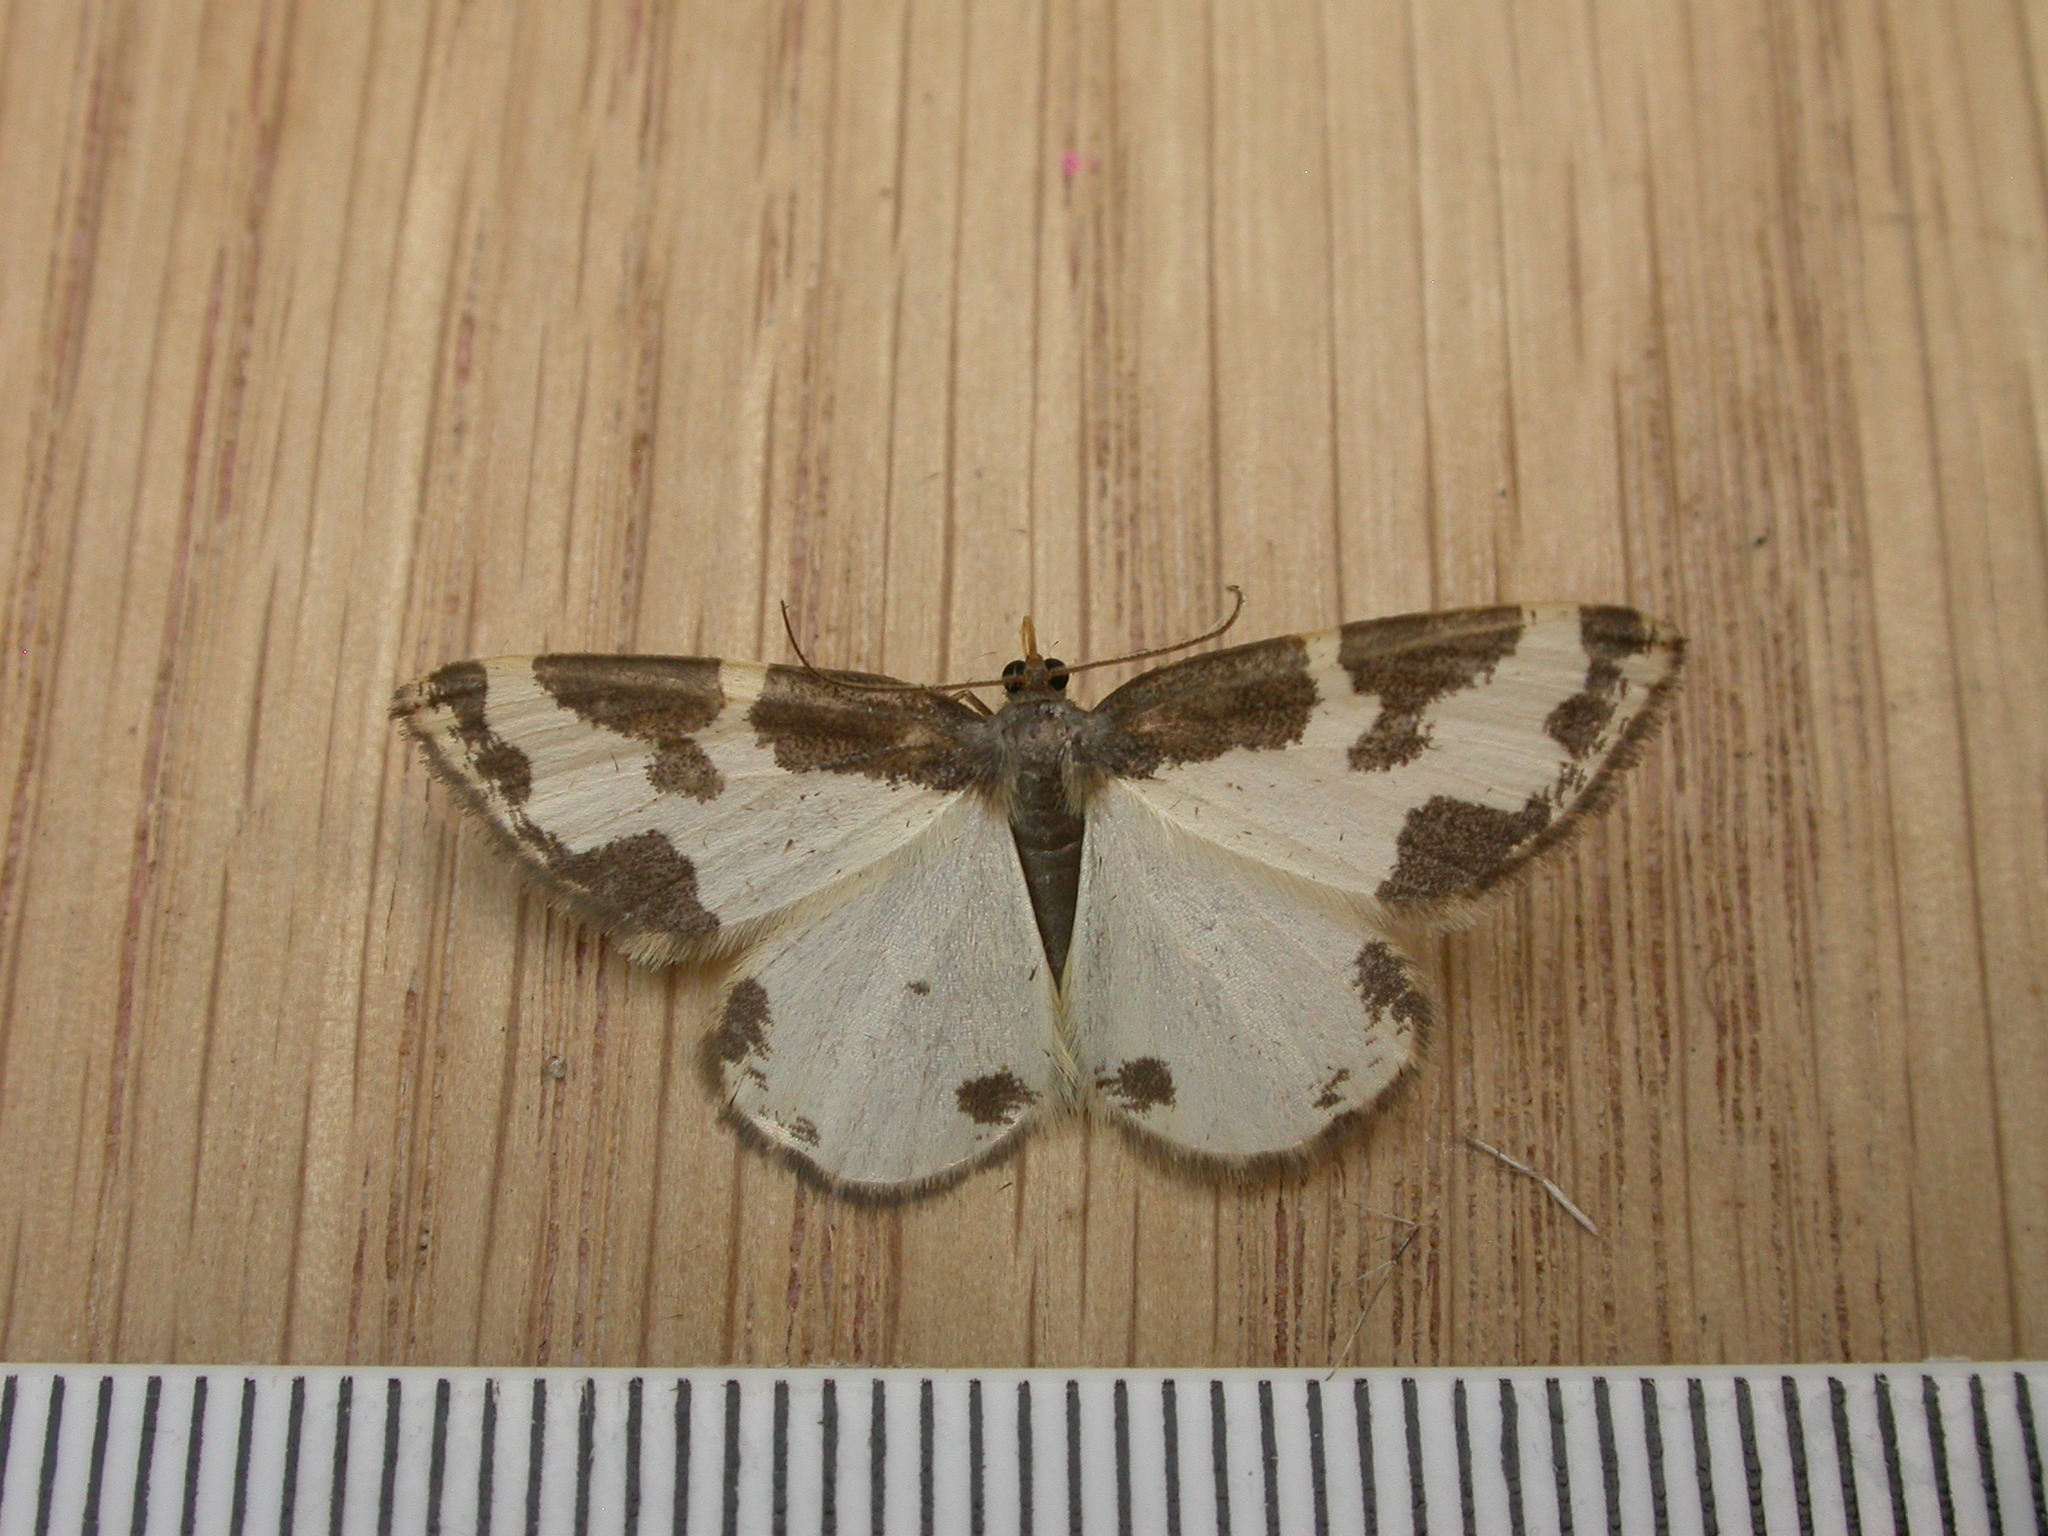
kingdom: Animalia
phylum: Arthropoda
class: Insecta
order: Lepidoptera
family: Geometridae
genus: Lomaspilis
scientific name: Lomaspilis marginata
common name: Clouded border
